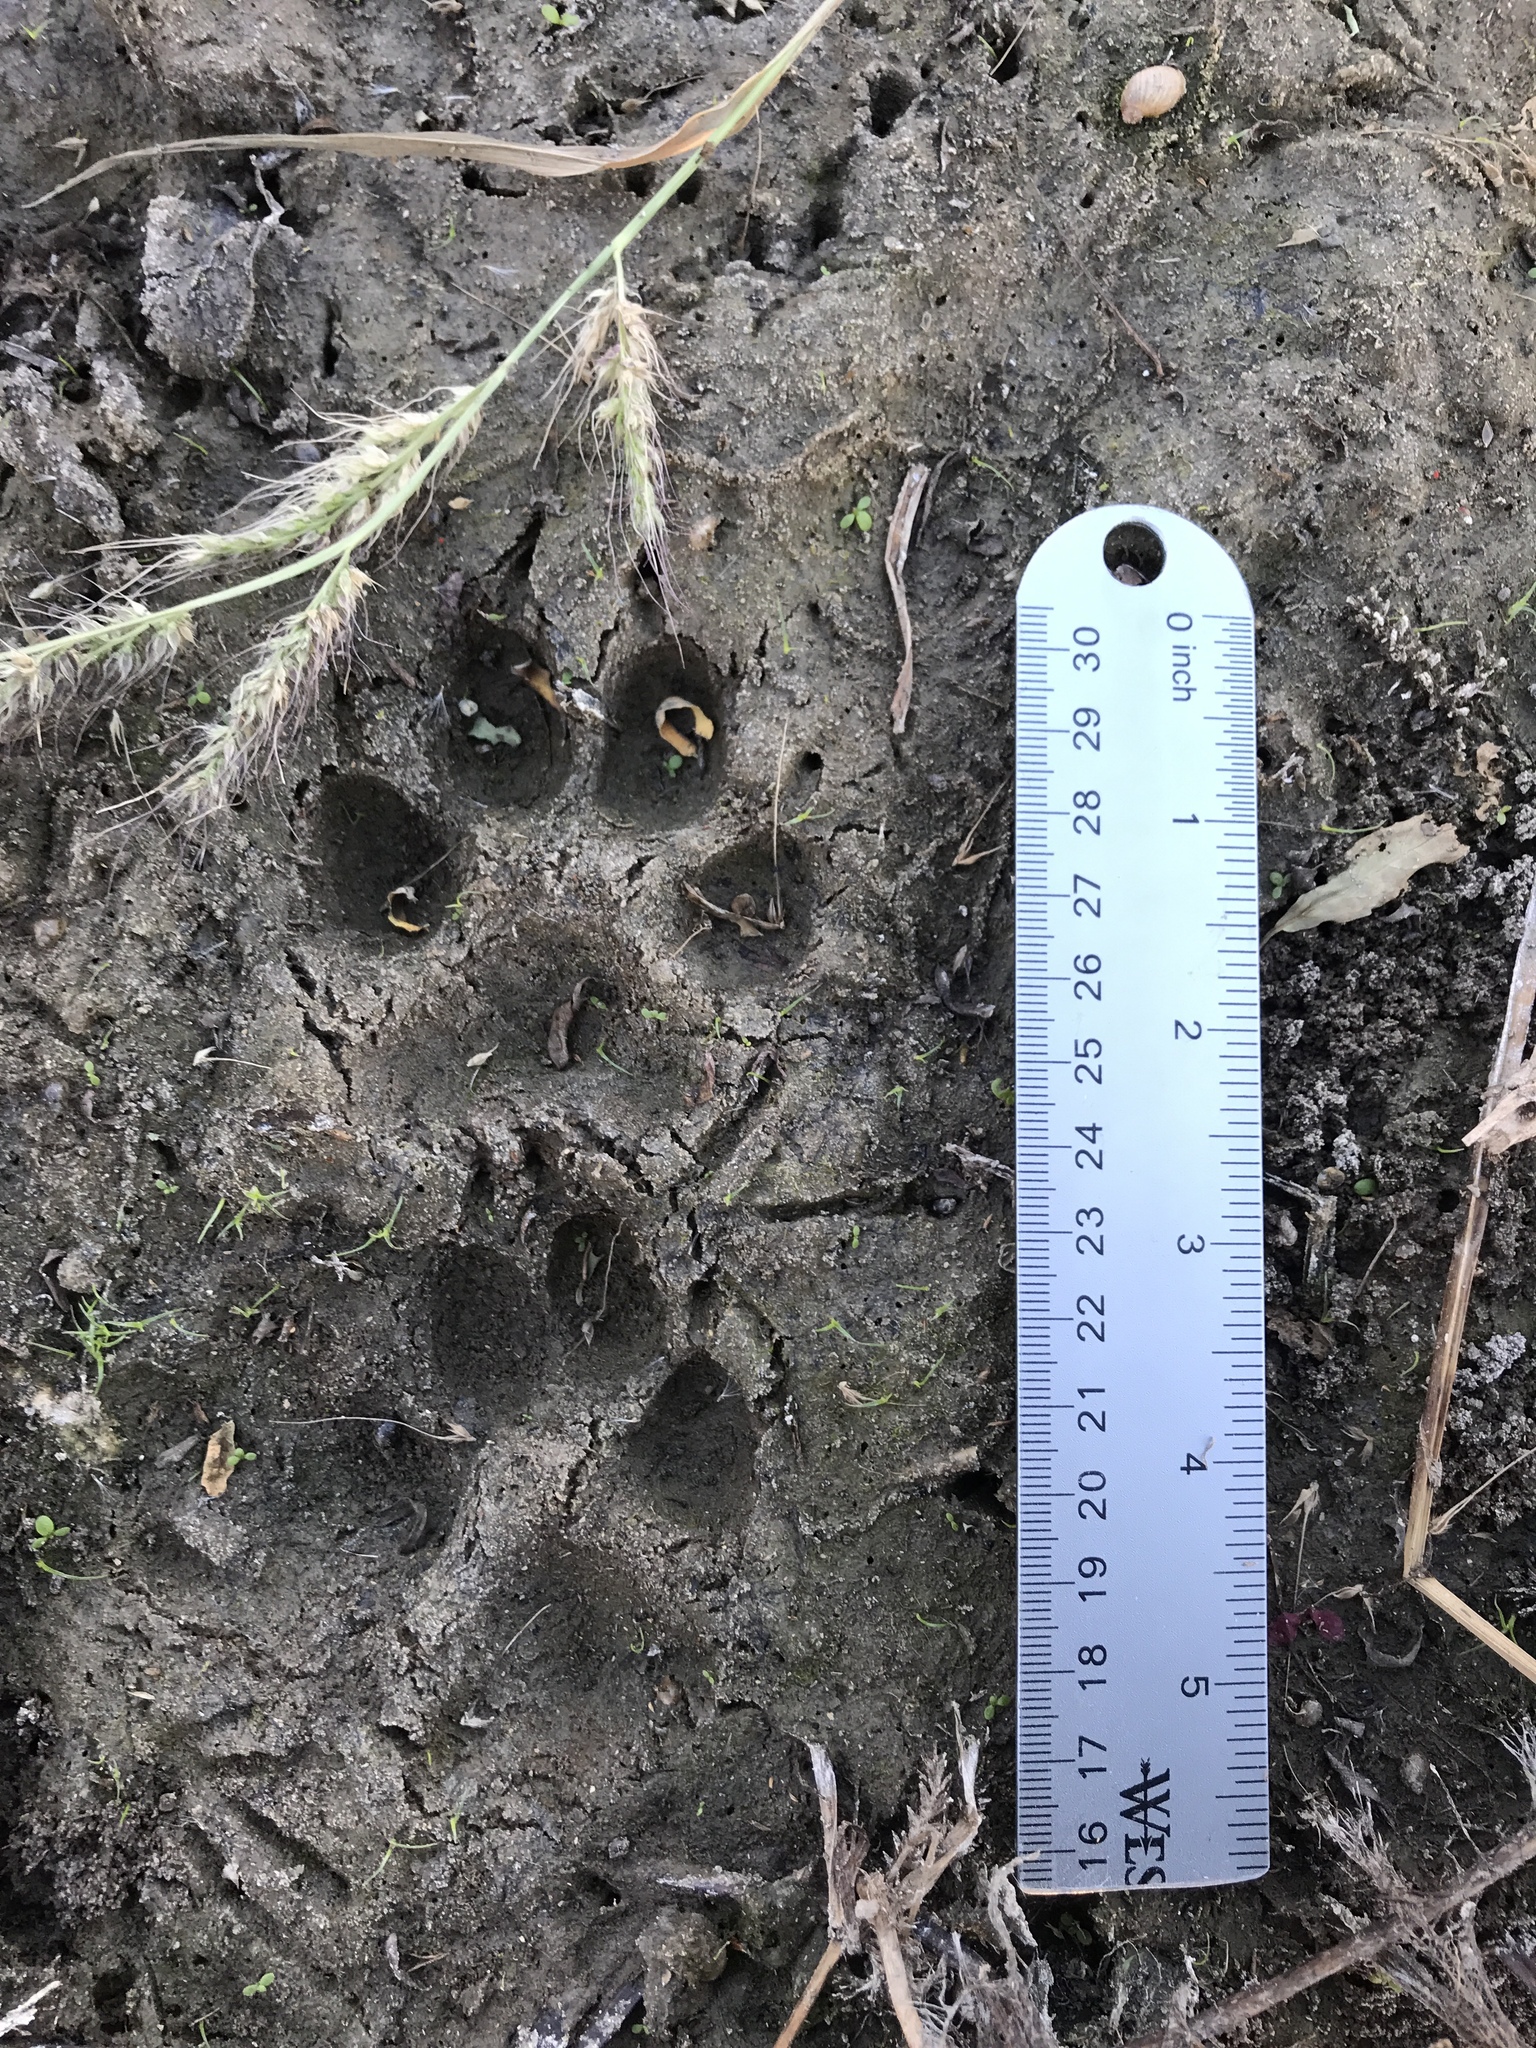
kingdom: Animalia
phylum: Chordata
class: Mammalia
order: Carnivora
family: Canidae
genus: Canis
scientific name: Canis latrans
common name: Coyote
